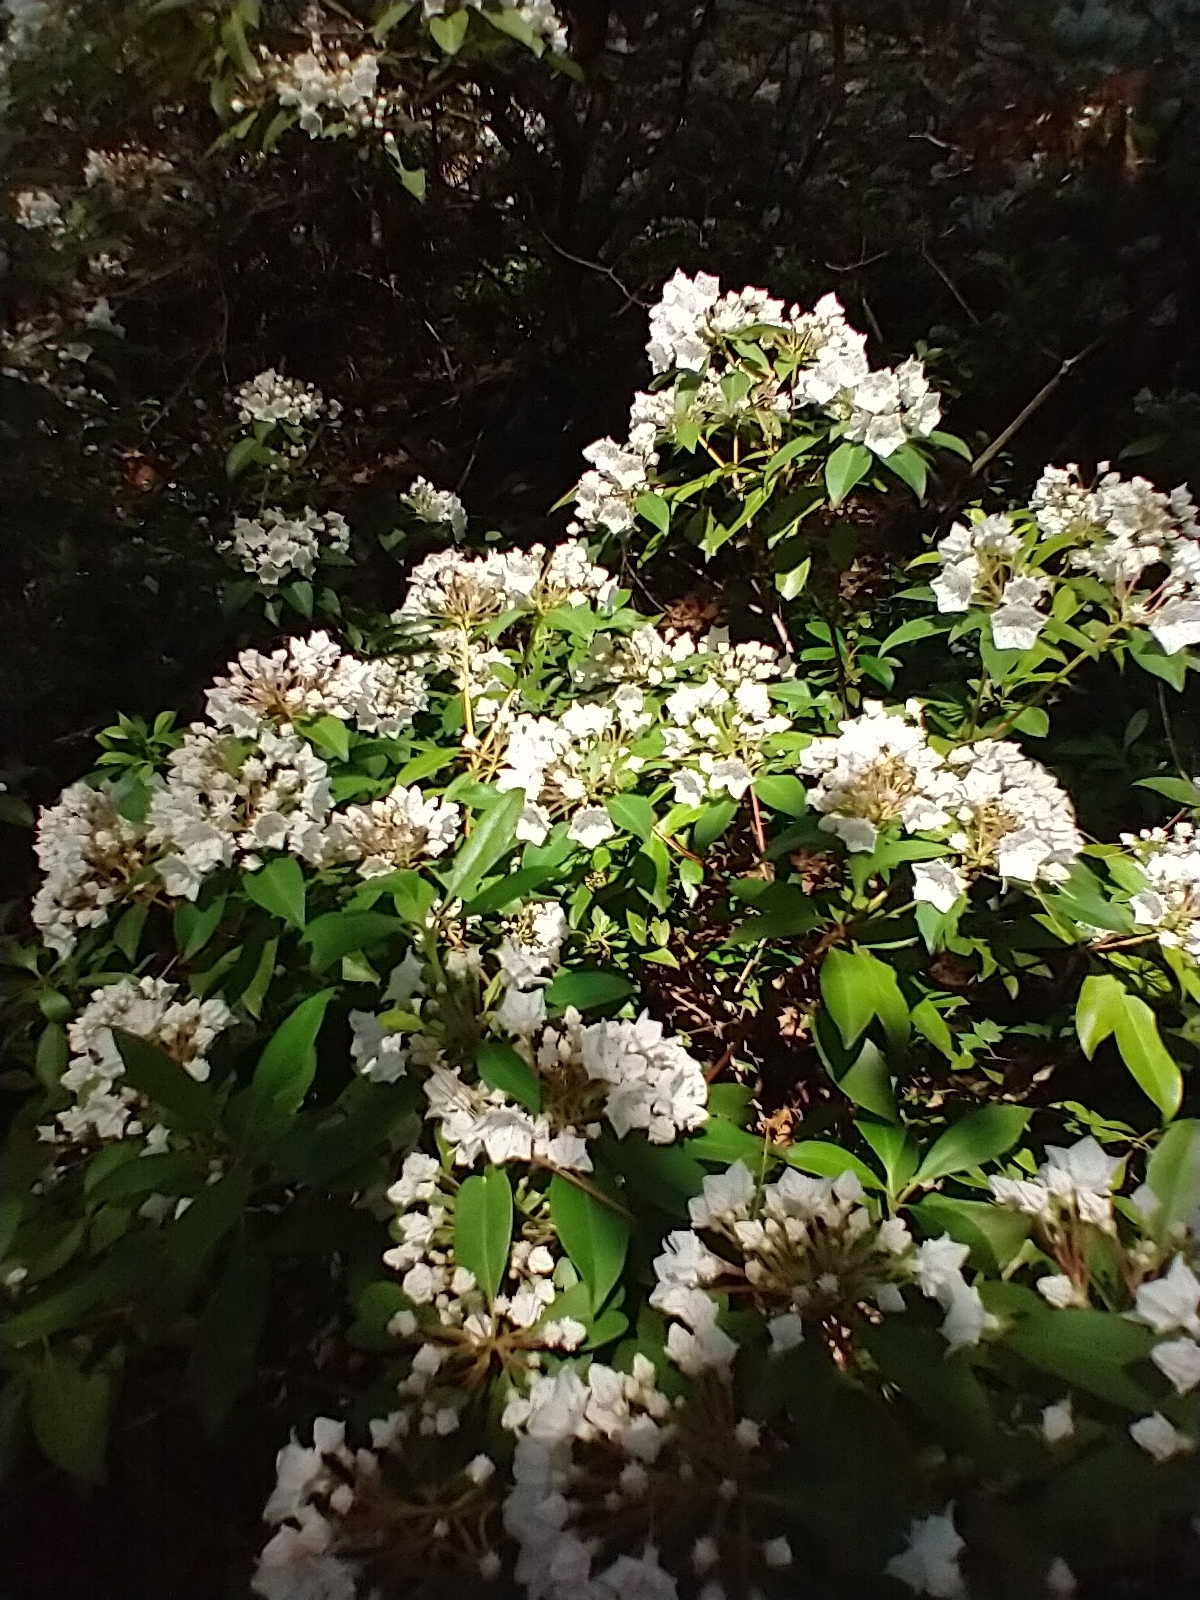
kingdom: Plantae
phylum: Tracheophyta
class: Magnoliopsida
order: Ericales
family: Ericaceae
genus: Kalmia
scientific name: Kalmia latifolia
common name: Mountain-laurel
